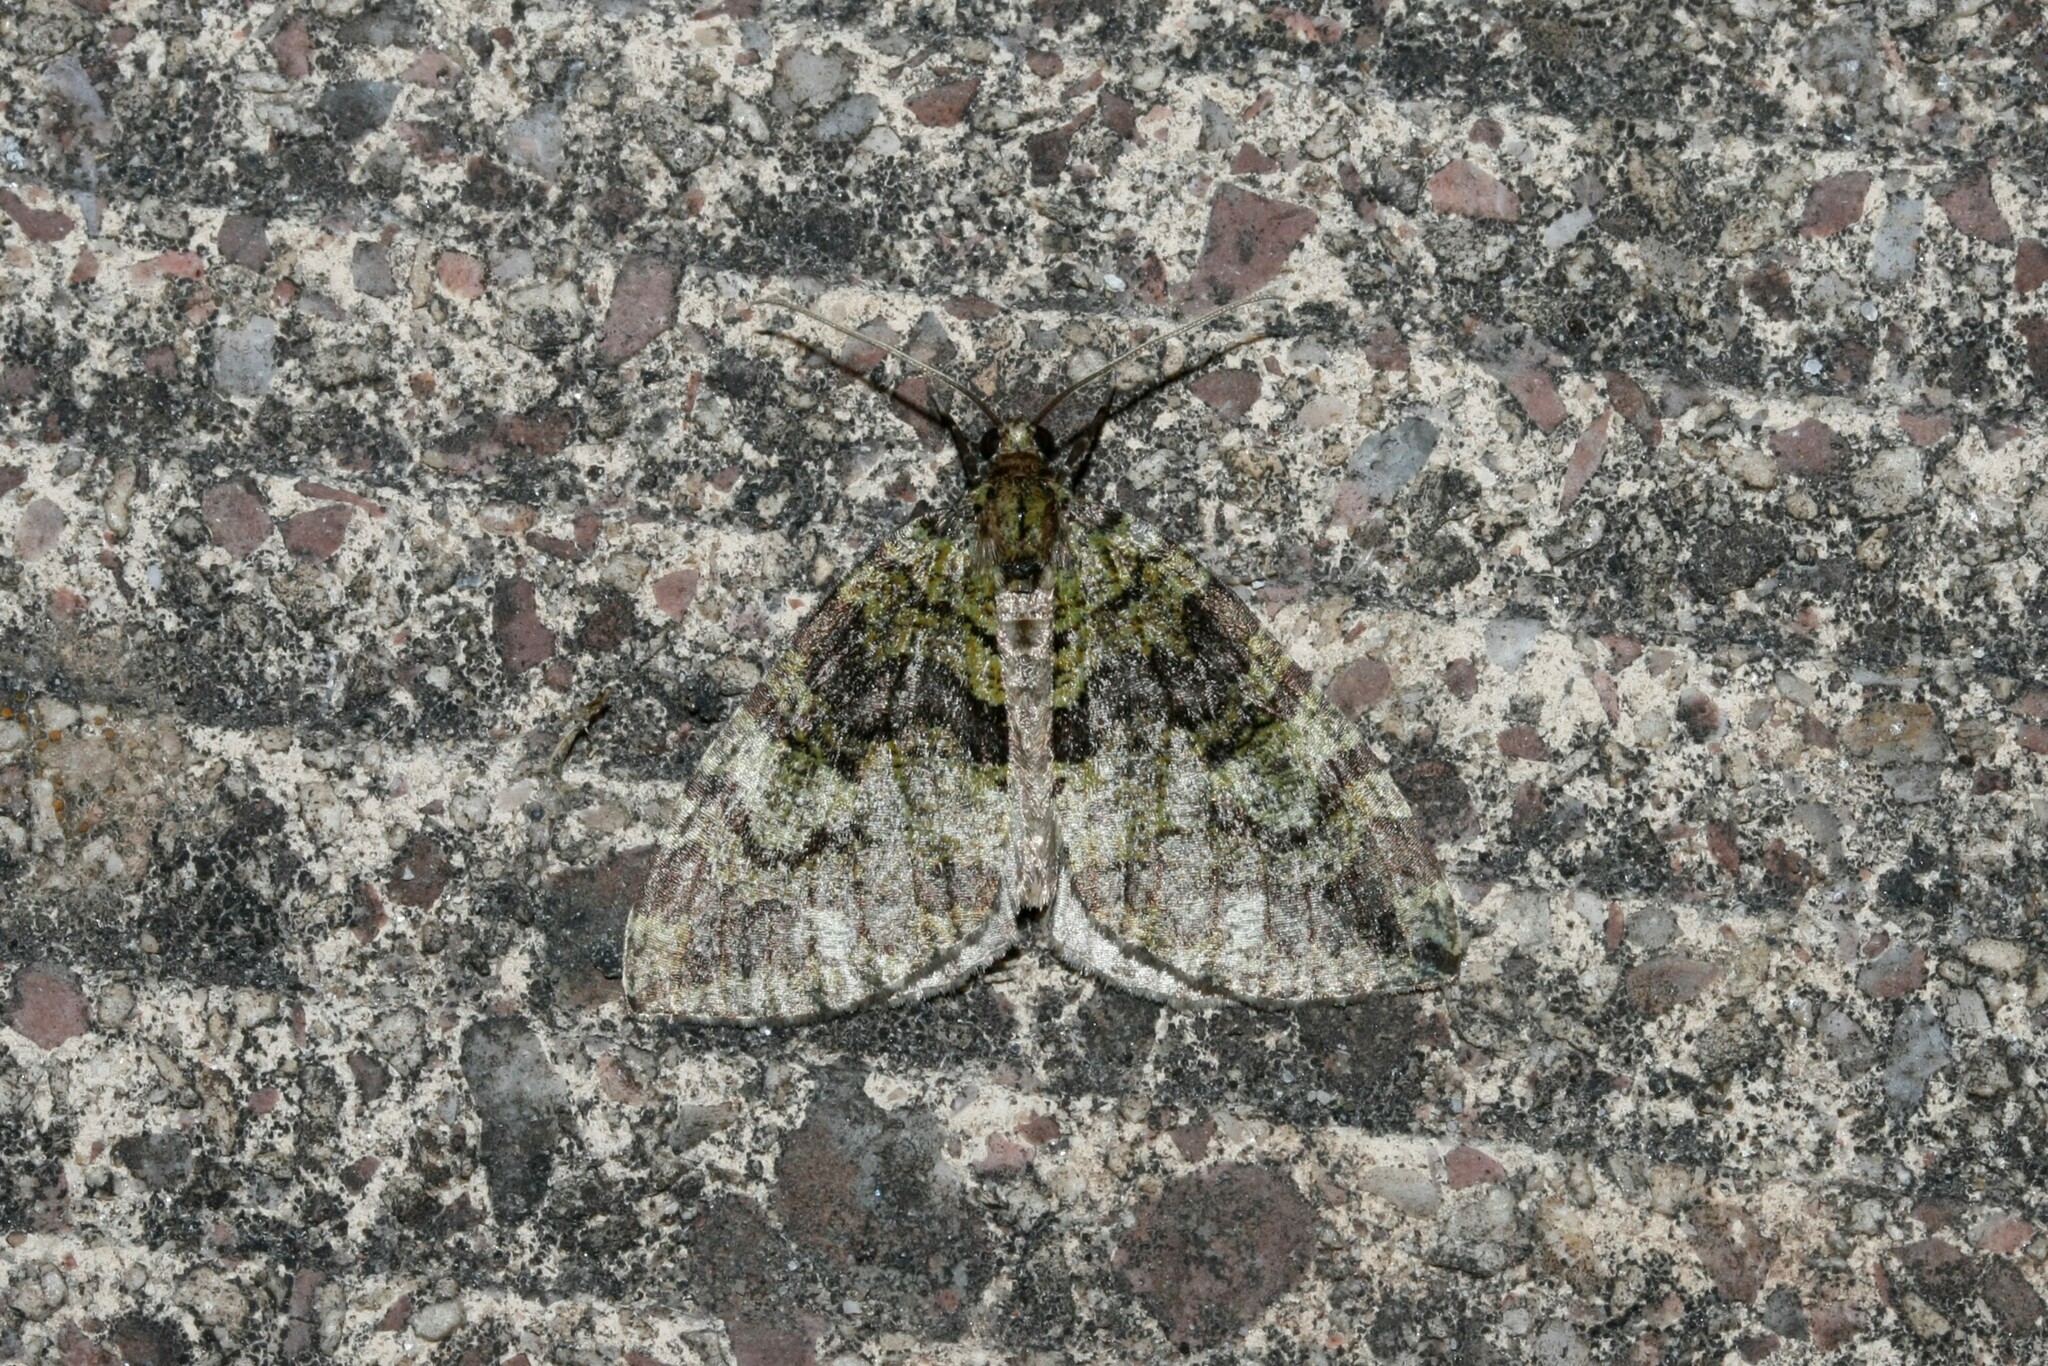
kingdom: Animalia
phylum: Arthropoda
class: Insecta
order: Lepidoptera
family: Geometridae
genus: Hydriomena
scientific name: Hydriomena furcata
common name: July highflyer
